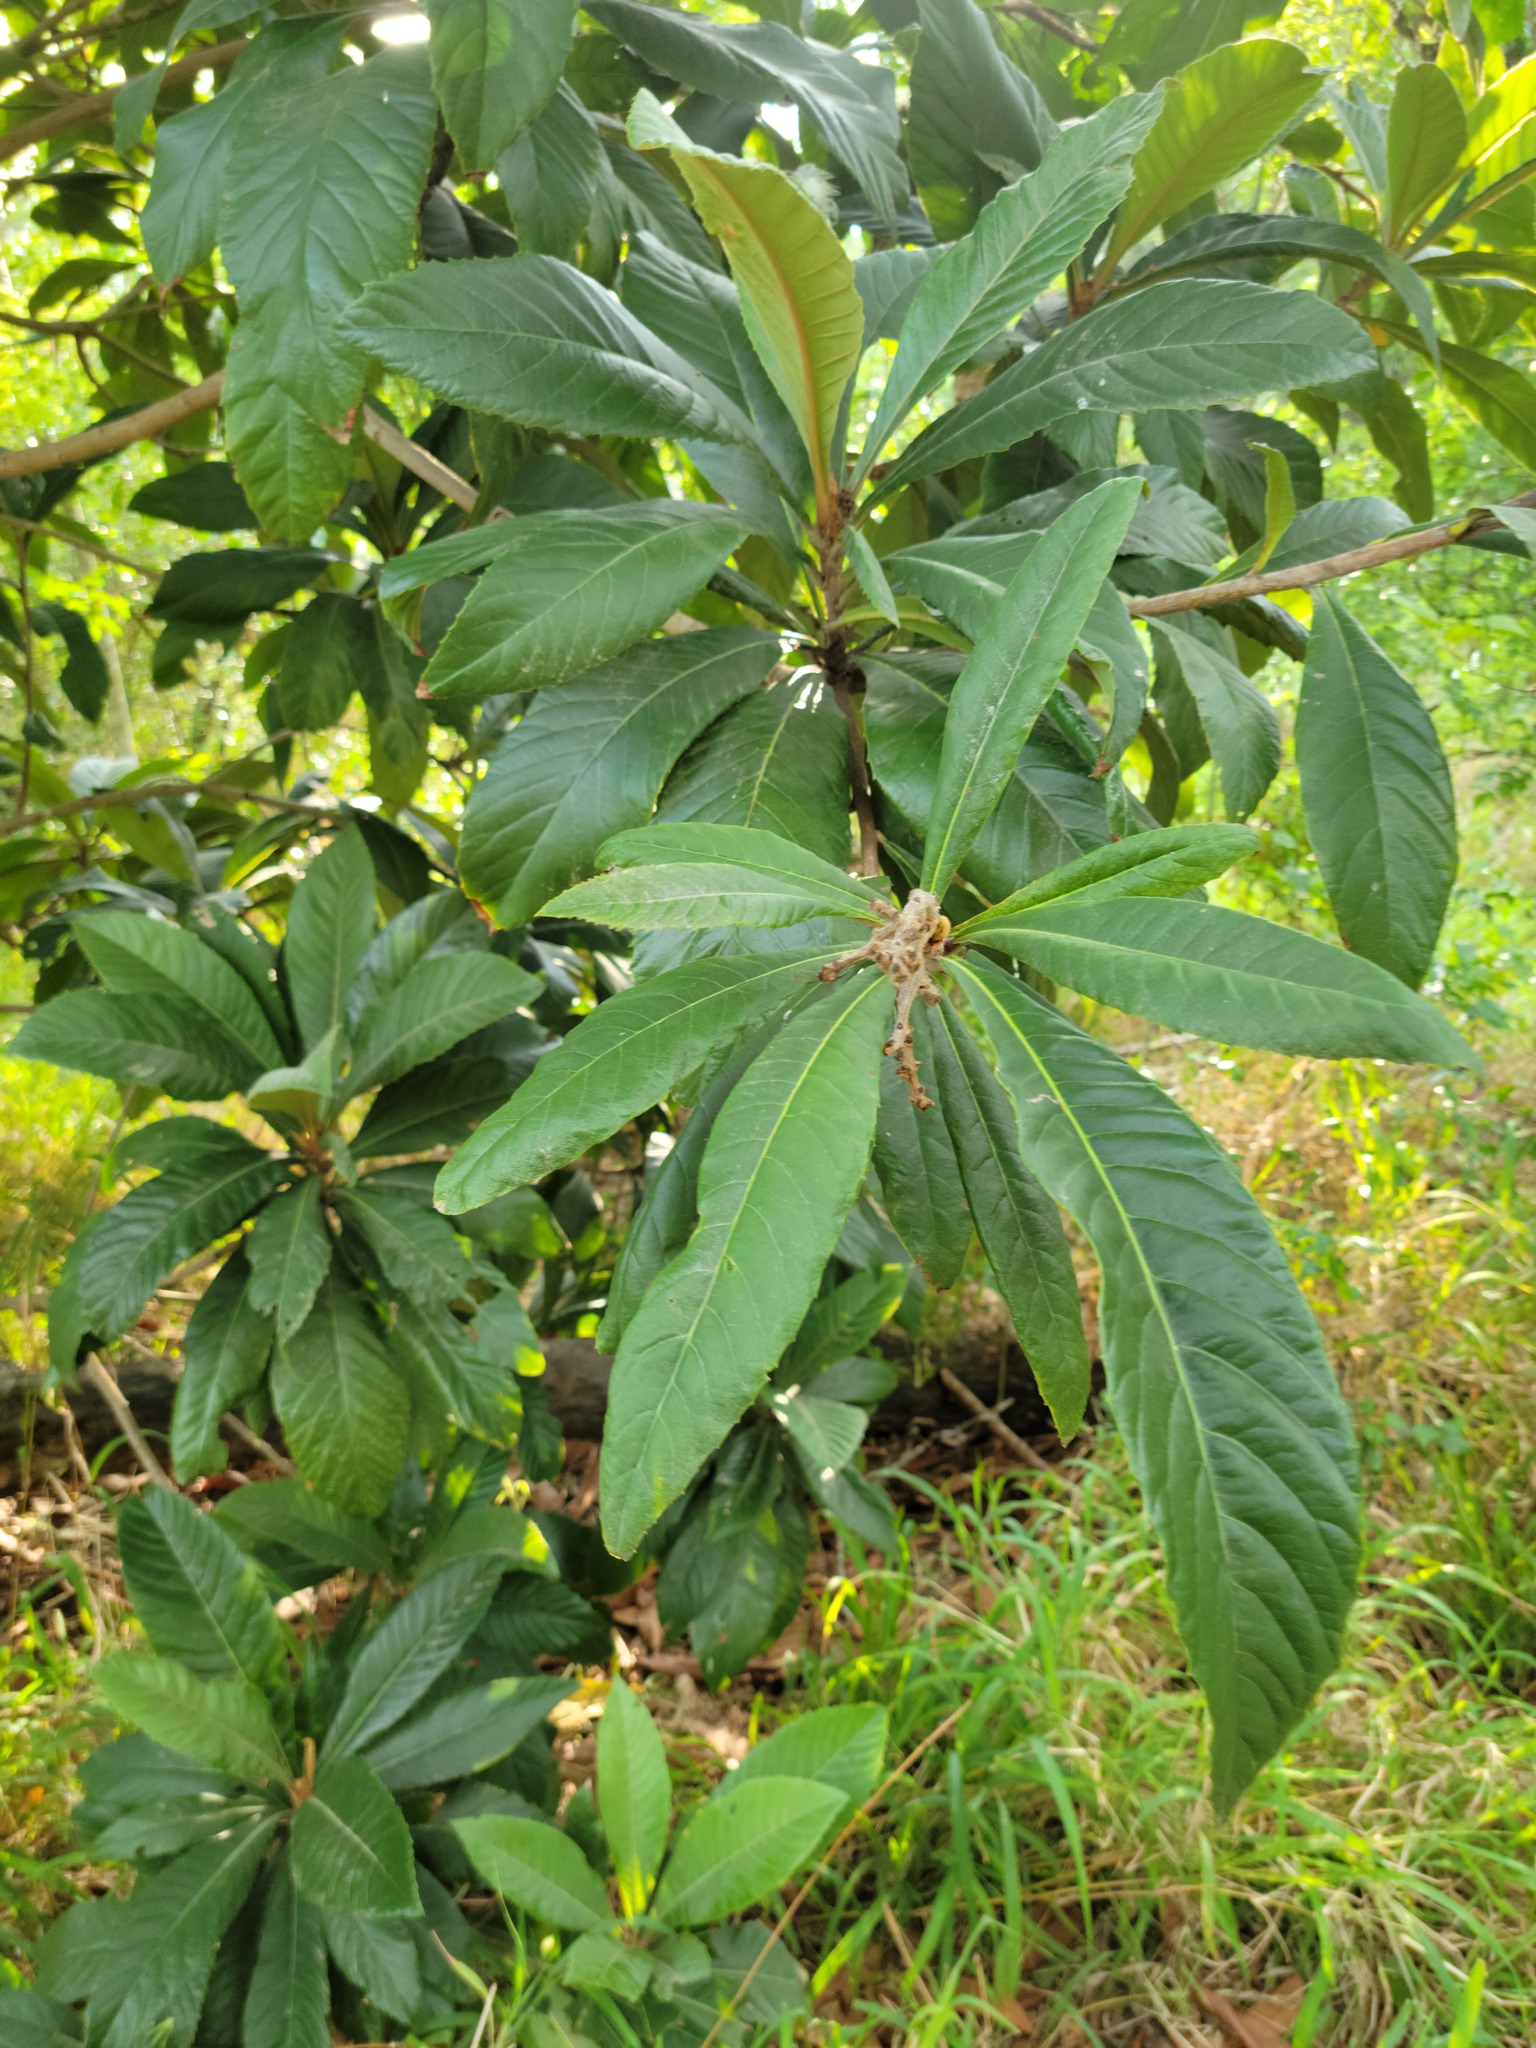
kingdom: Plantae
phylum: Tracheophyta
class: Magnoliopsida
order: Rosales
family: Rosaceae
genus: Rhaphiolepis
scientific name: Rhaphiolepis bibas
